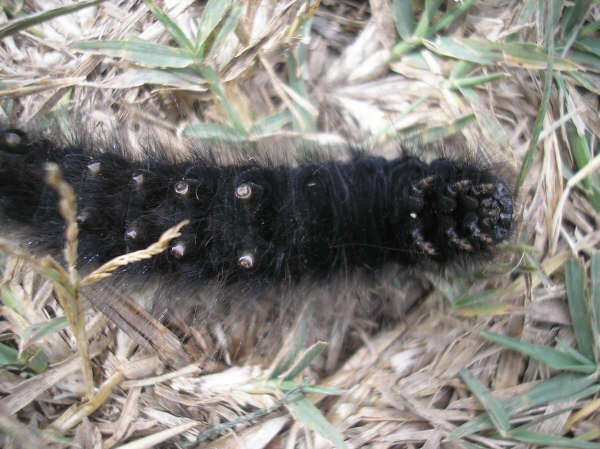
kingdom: Animalia
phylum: Arthropoda
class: Insecta
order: Lepidoptera
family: Lasiocampidae
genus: Macrothylacia
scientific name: Macrothylacia rubi
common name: Fox moth
